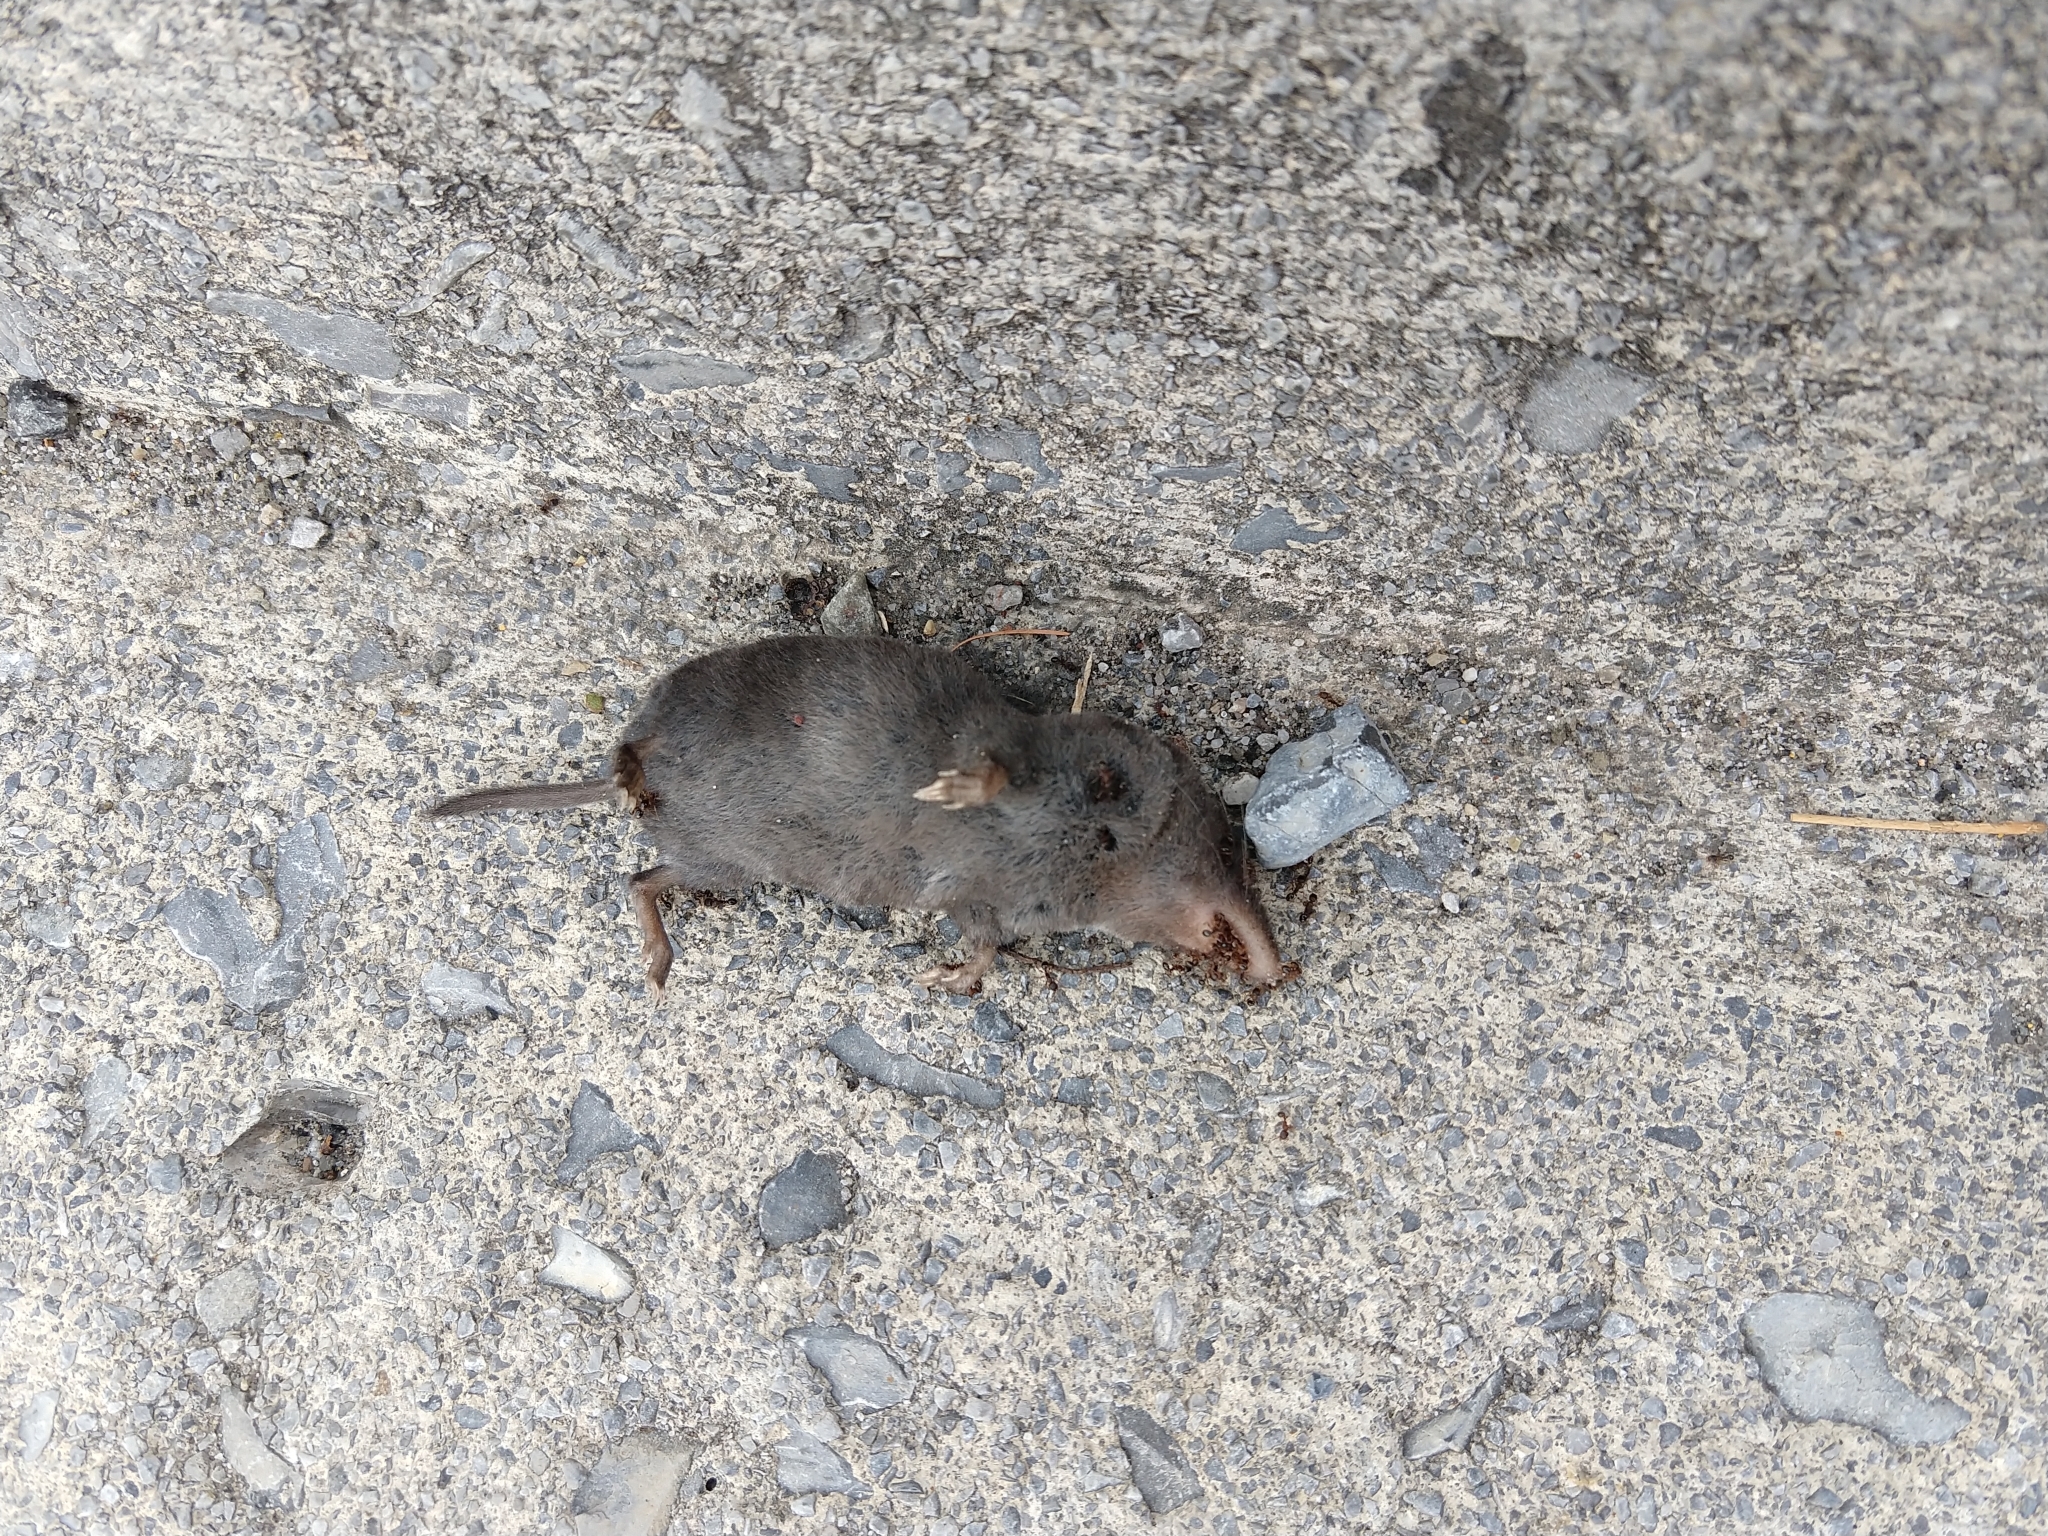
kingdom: Animalia
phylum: Chordata
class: Mammalia
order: Soricomorpha
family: Soricidae
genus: Blarina
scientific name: Blarina brevicauda
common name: Northern short-tailed shrew
